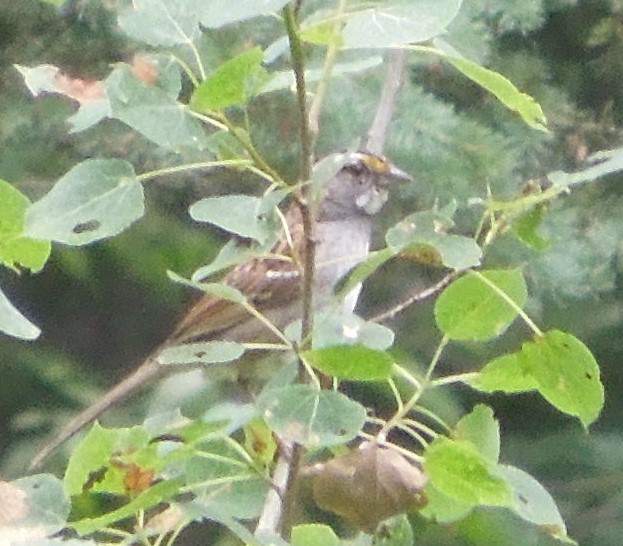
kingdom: Animalia
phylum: Chordata
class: Aves
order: Passeriformes
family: Passerellidae
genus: Zonotrichia
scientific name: Zonotrichia albicollis
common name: White-throated sparrow
